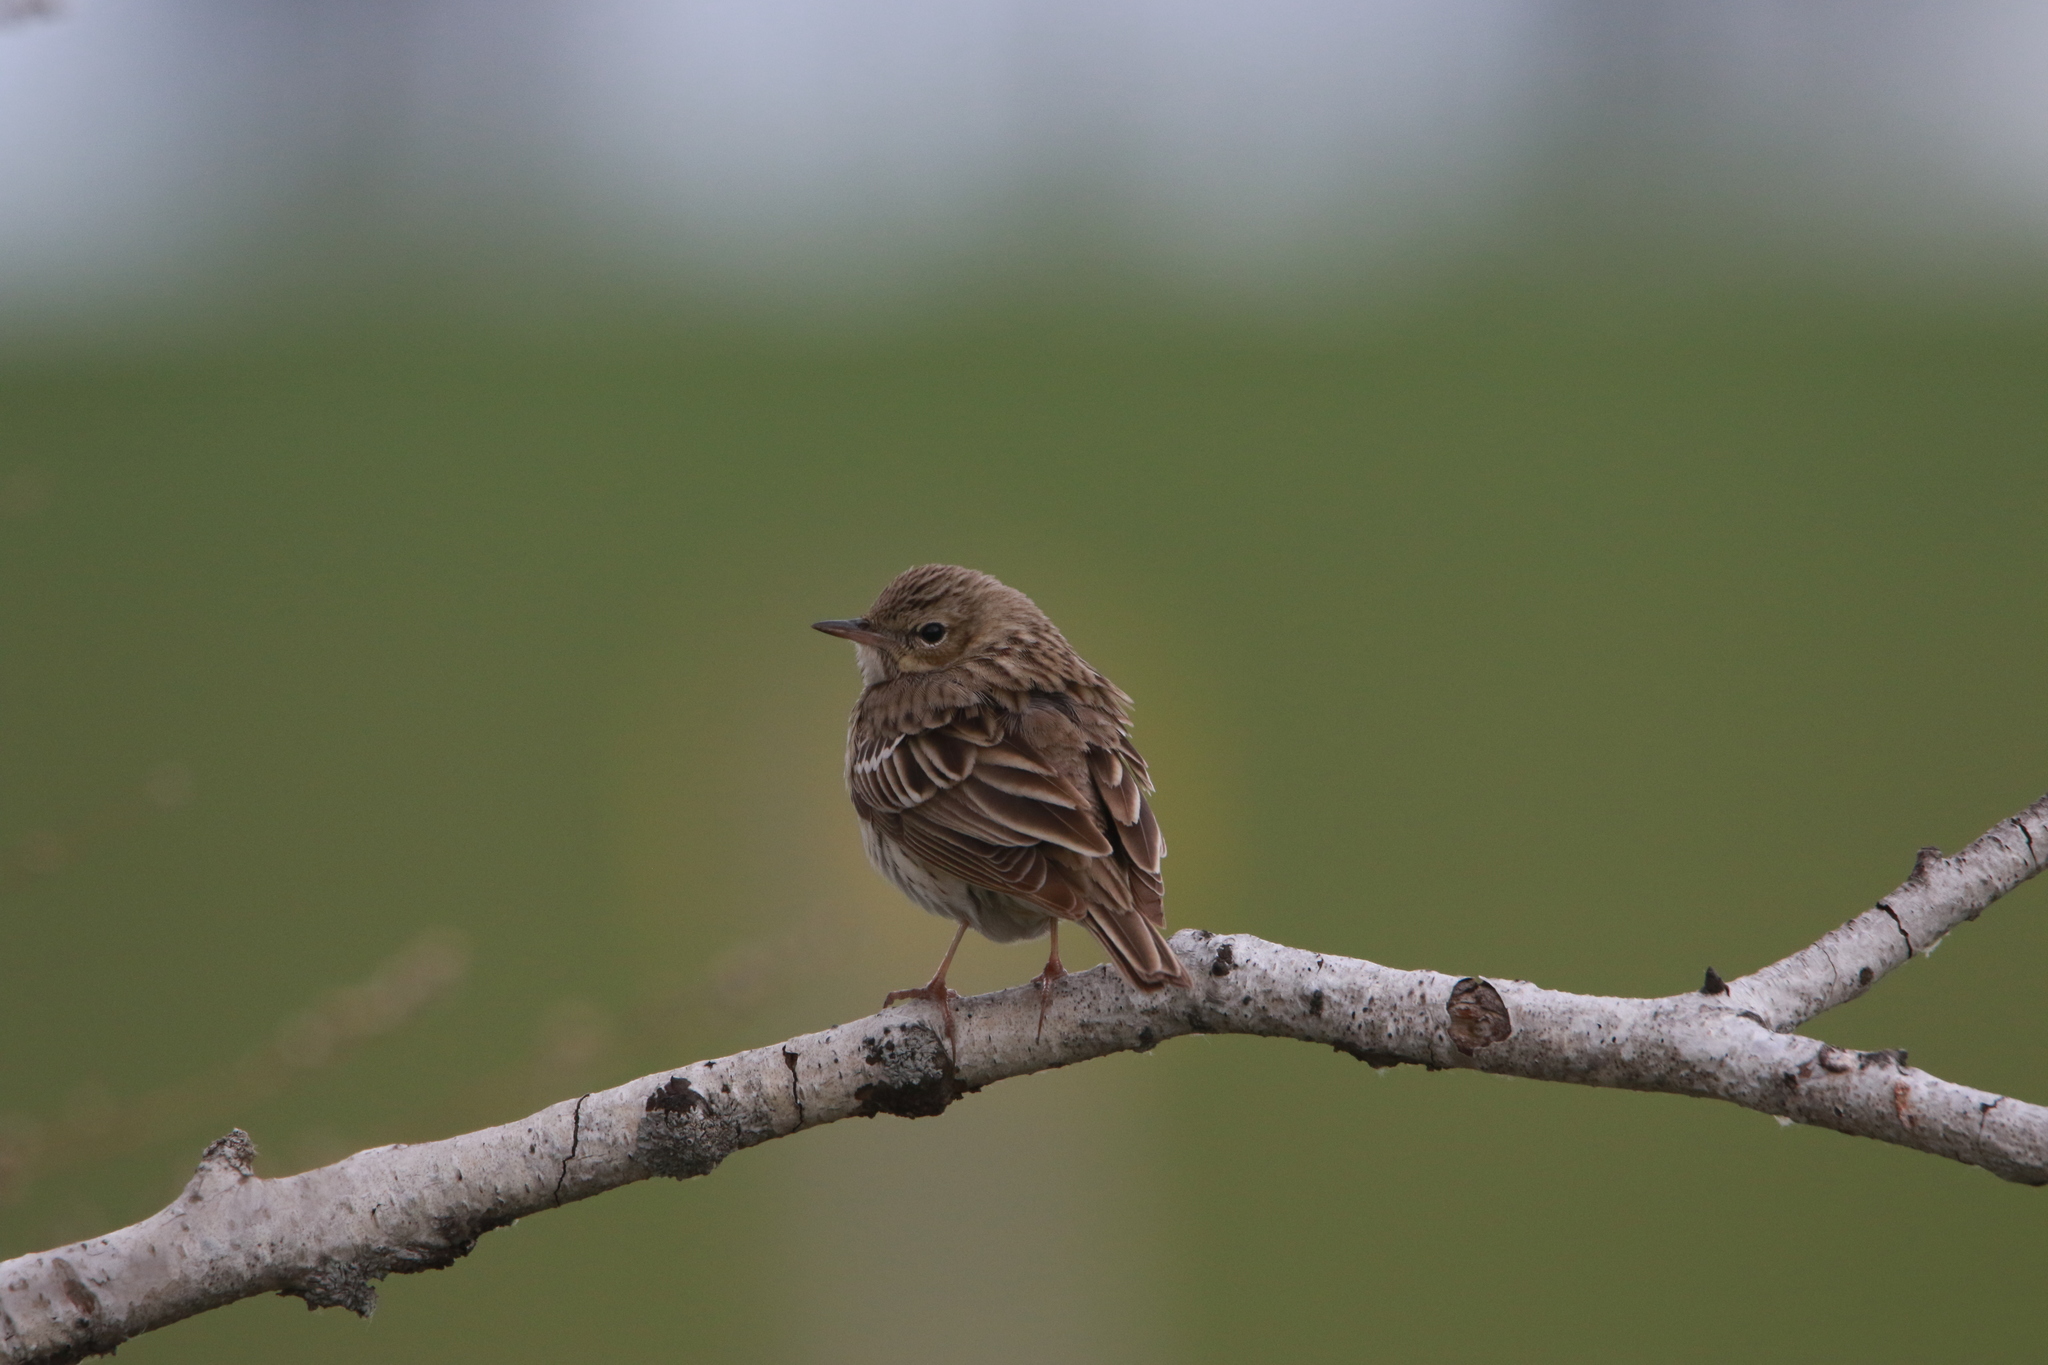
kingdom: Animalia
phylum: Chordata
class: Aves
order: Passeriformes
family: Motacillidae
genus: Anthus
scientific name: Anthus trivialis
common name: Tree pipit
